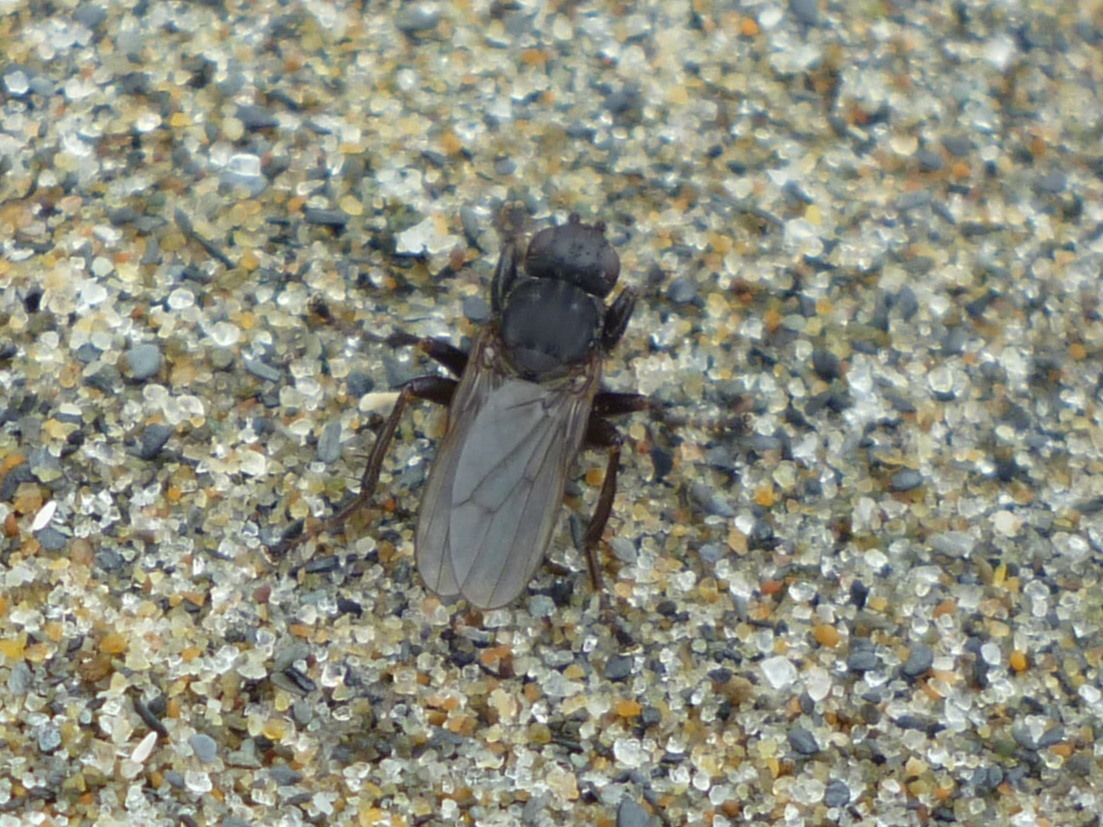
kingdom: Animalia
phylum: Arthropoda
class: Insecta
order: Diptera
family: Sepsidae
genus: Orygma
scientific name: Orygma luctuosum
